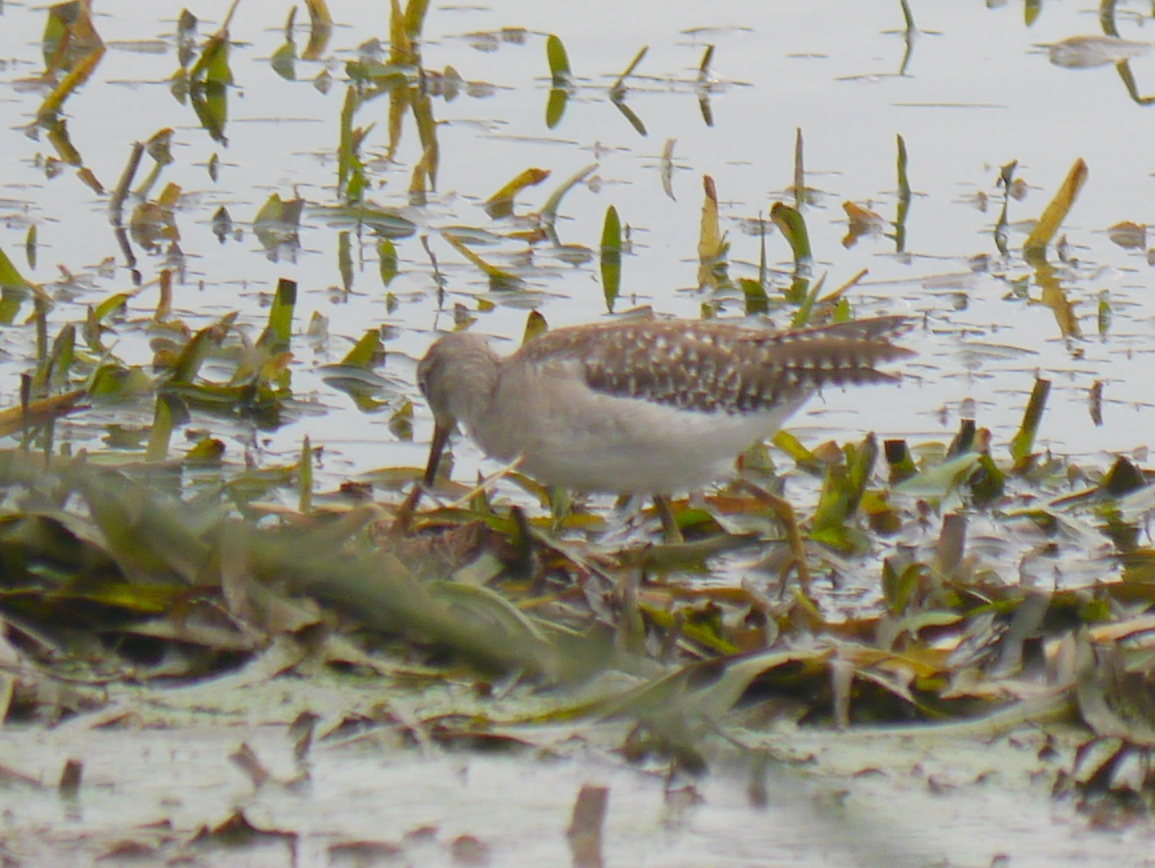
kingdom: Animalia
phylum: Chordata
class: Aves
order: Charadriiformes
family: Scolopacidae
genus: Tringa
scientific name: Tringa glareola
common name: Wood sandpiper
